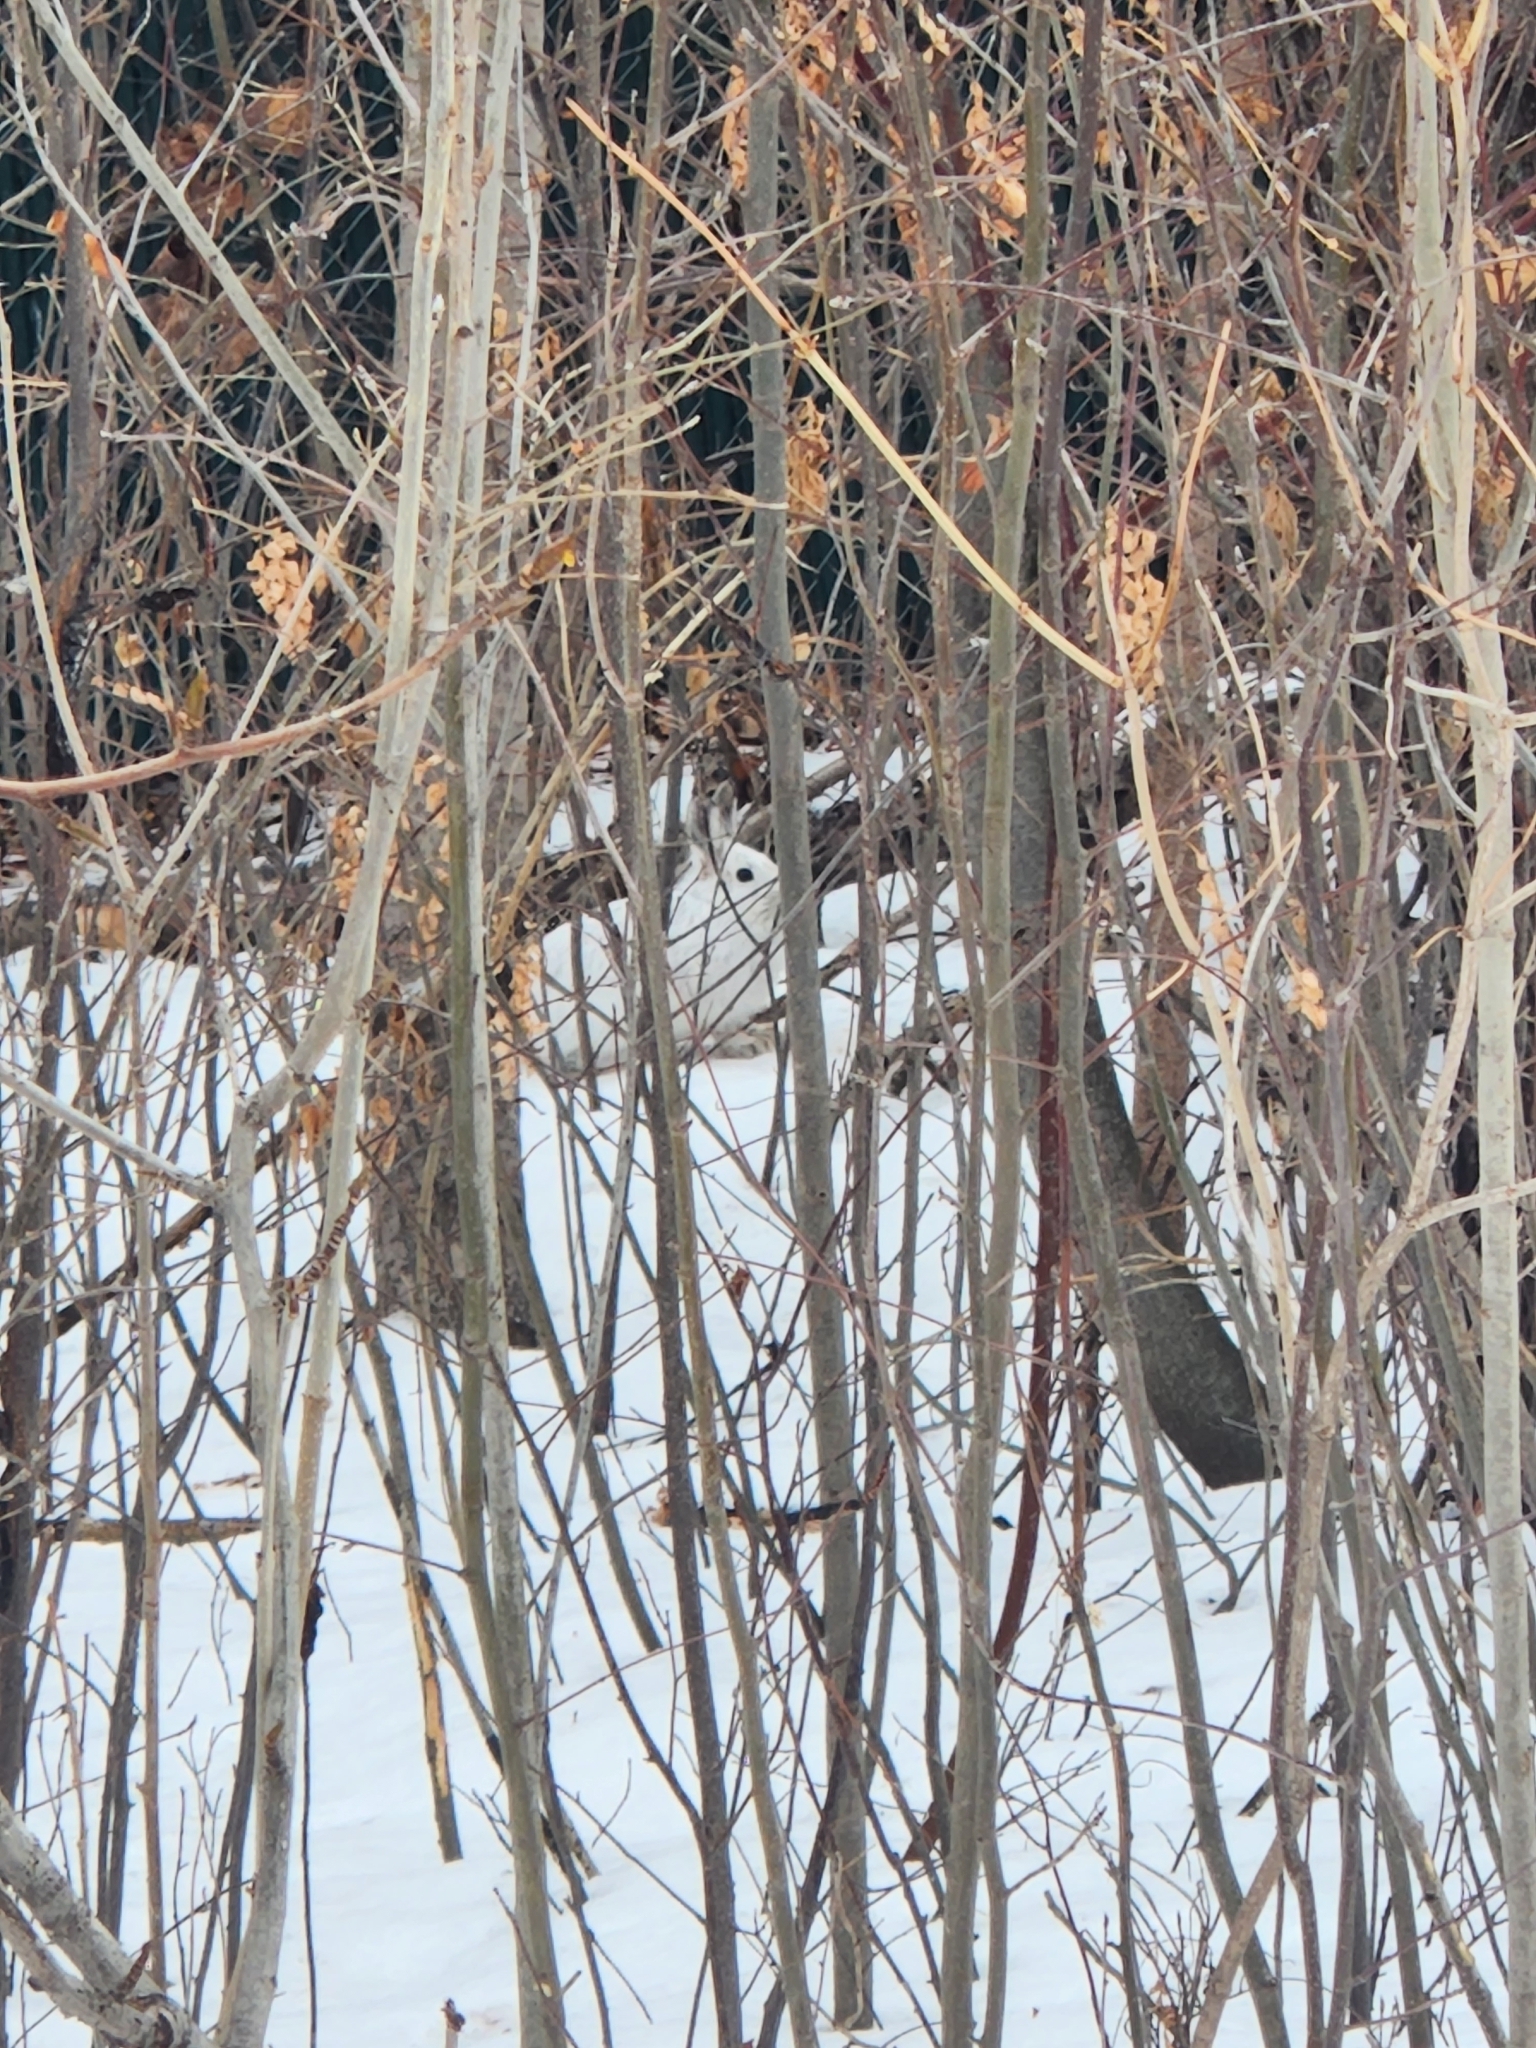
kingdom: Animalia
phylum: Chordata
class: Mammalia
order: Lagomorpha
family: Leporidae
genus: Lepus
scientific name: Lepus americanus
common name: Snowshoe hare
